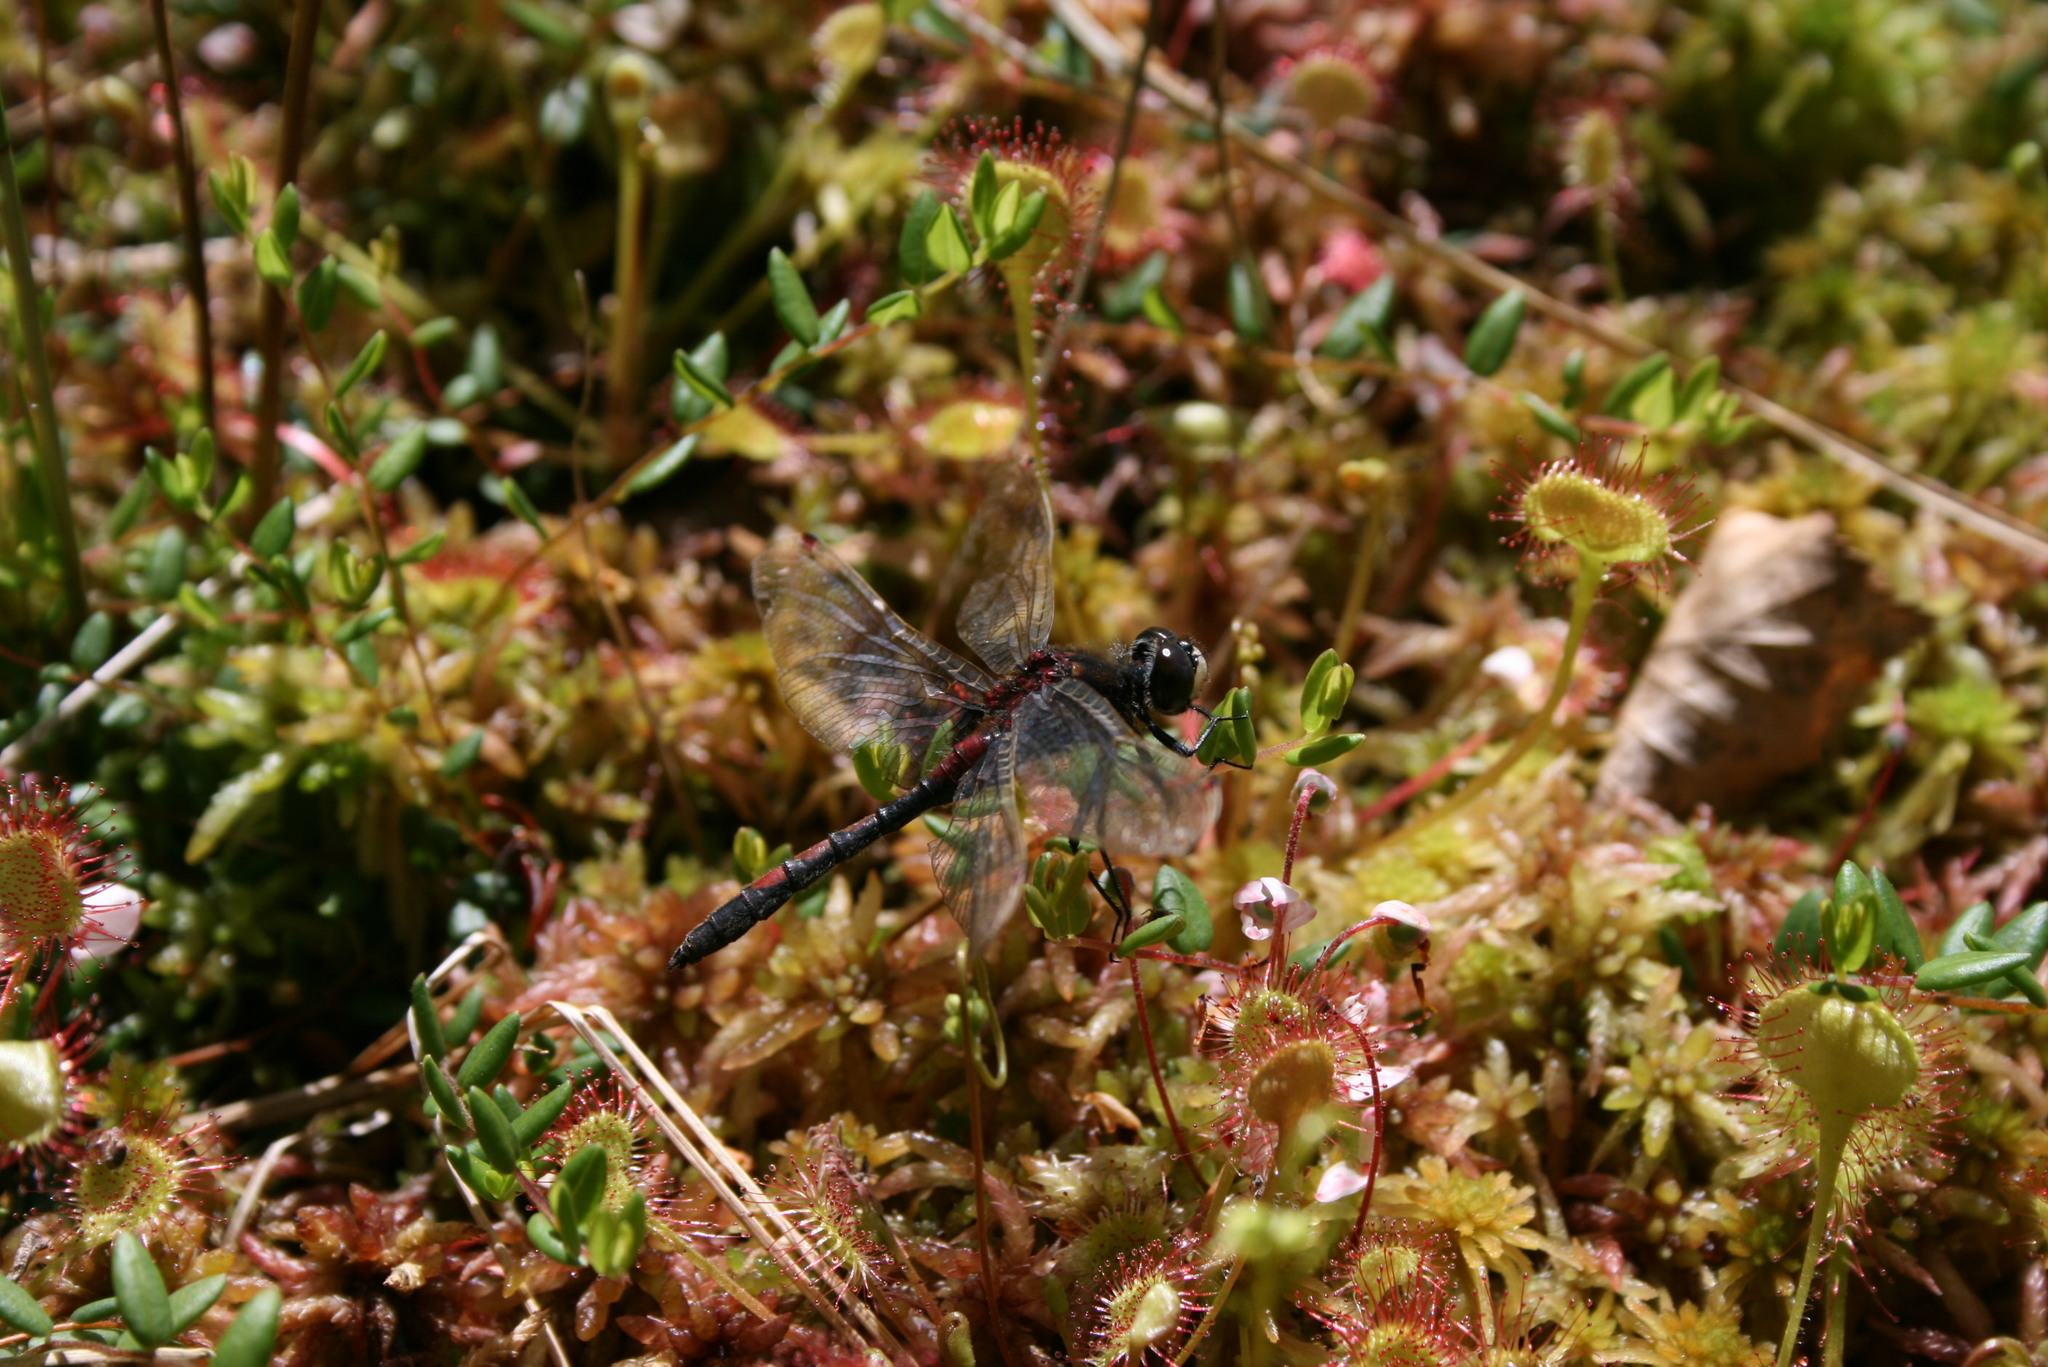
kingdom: Animalia
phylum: Arthropoda
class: Insecta
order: Odonata
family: Libellulidae
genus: Leucorrhinia
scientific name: Leucorrhinia rubicunda
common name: Ruby whiteface
